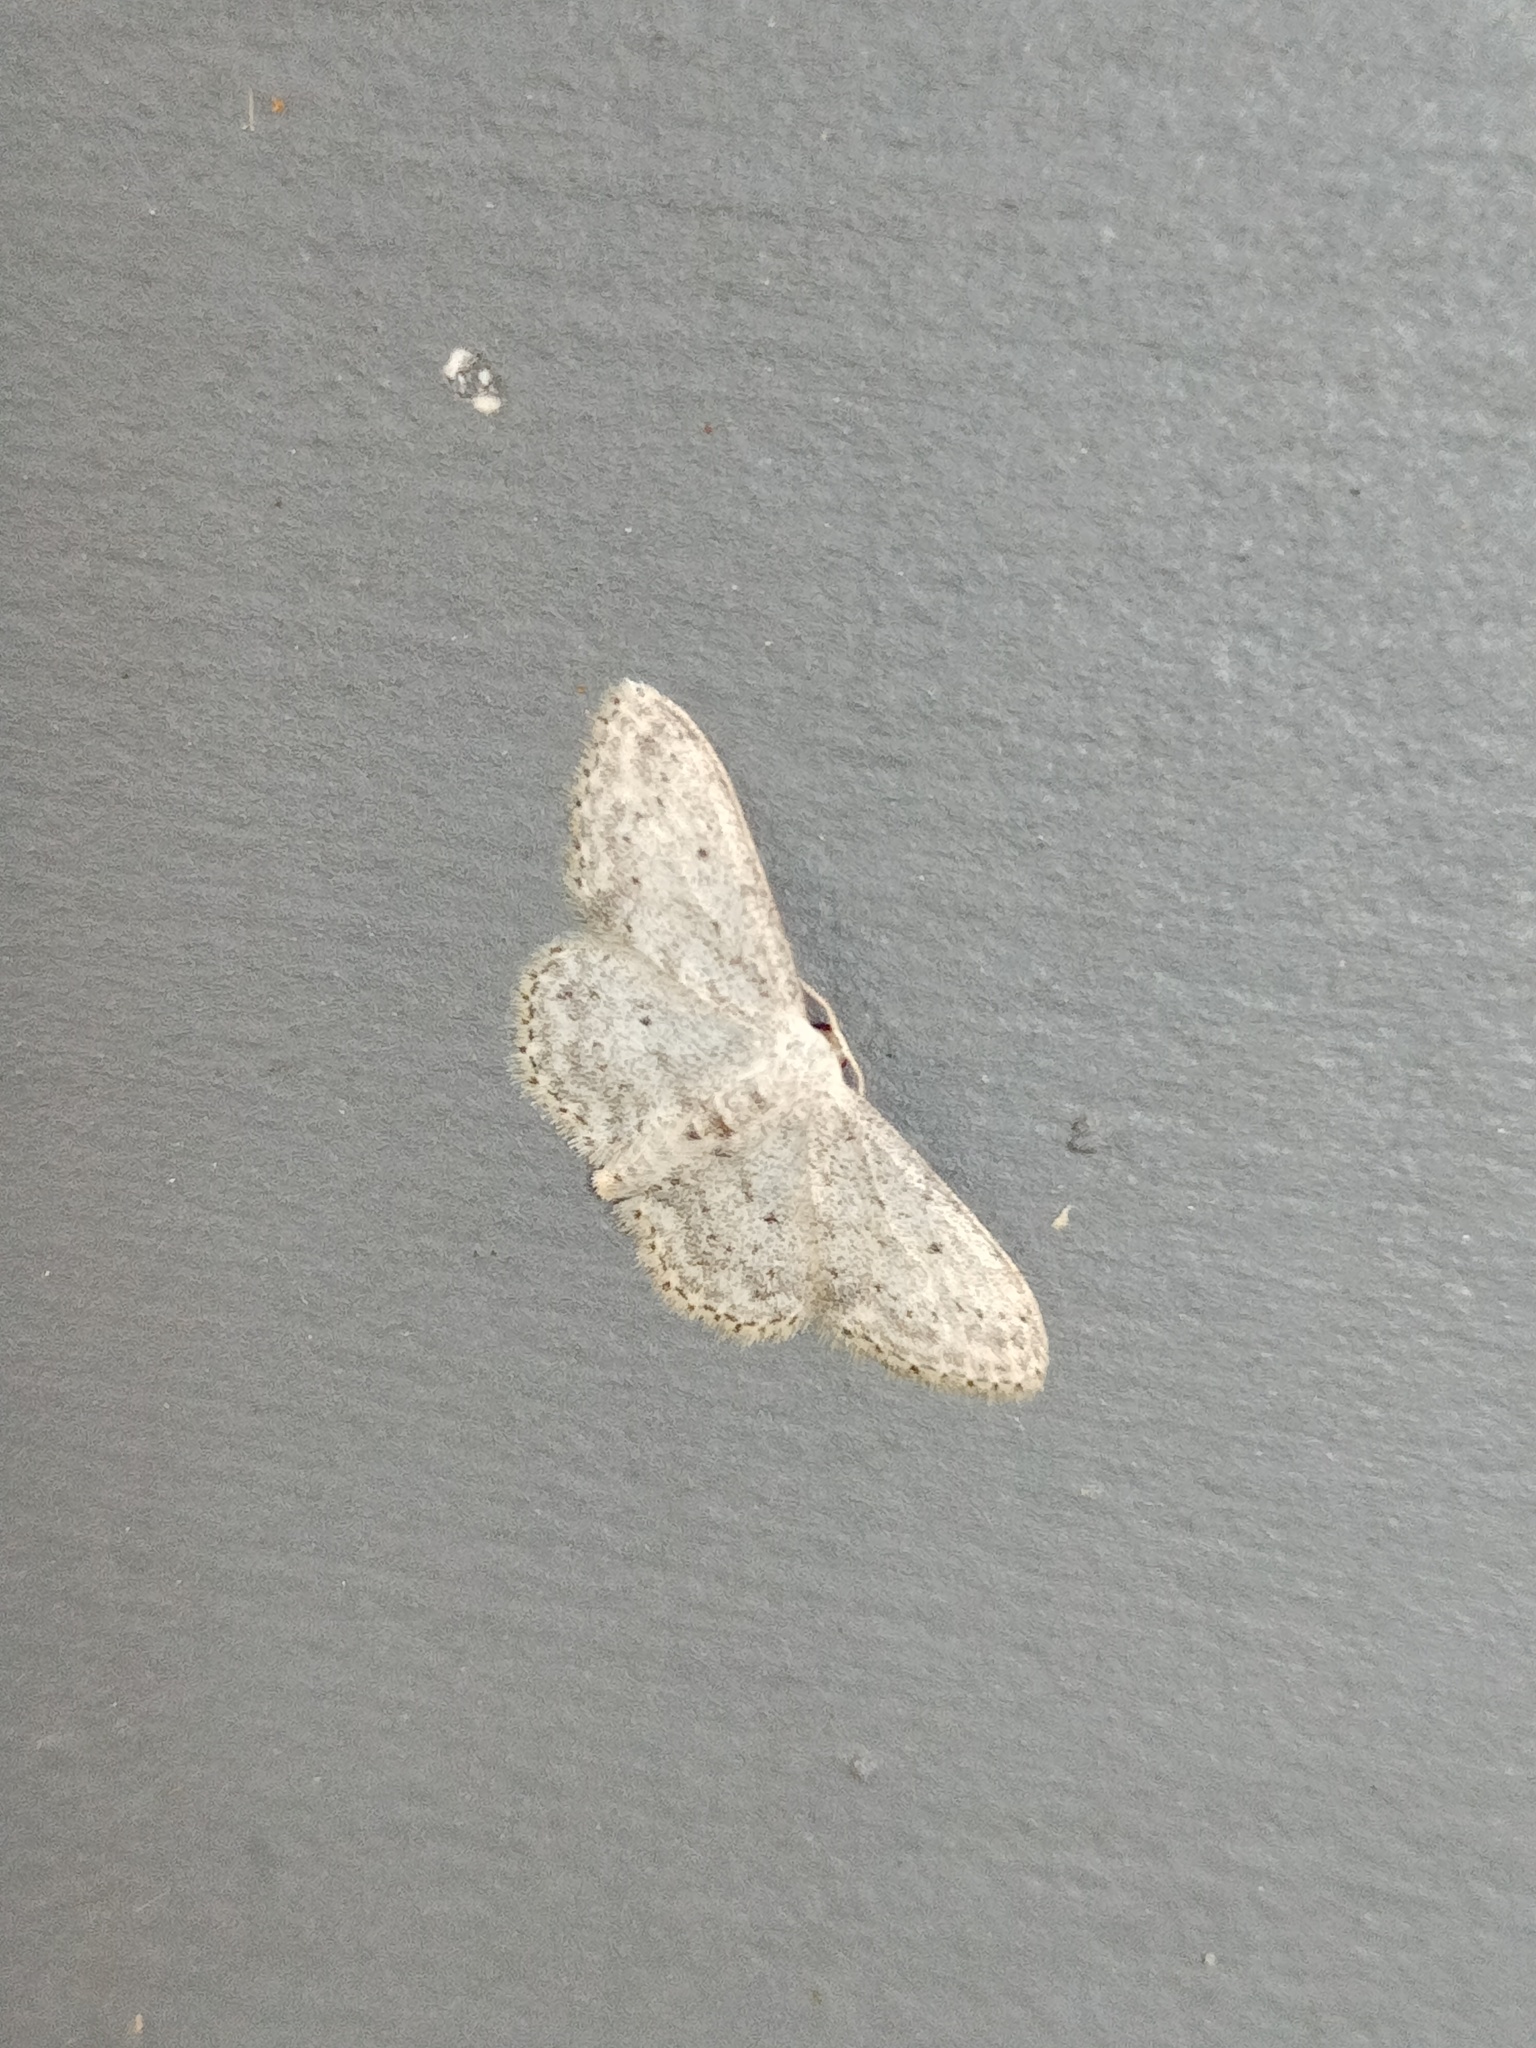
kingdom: Animalia
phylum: Arthropoda
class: Insecta
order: Lepidoptera
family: Geometridae
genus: Idaea
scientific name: Idaea seriata
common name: Small dusty wave
